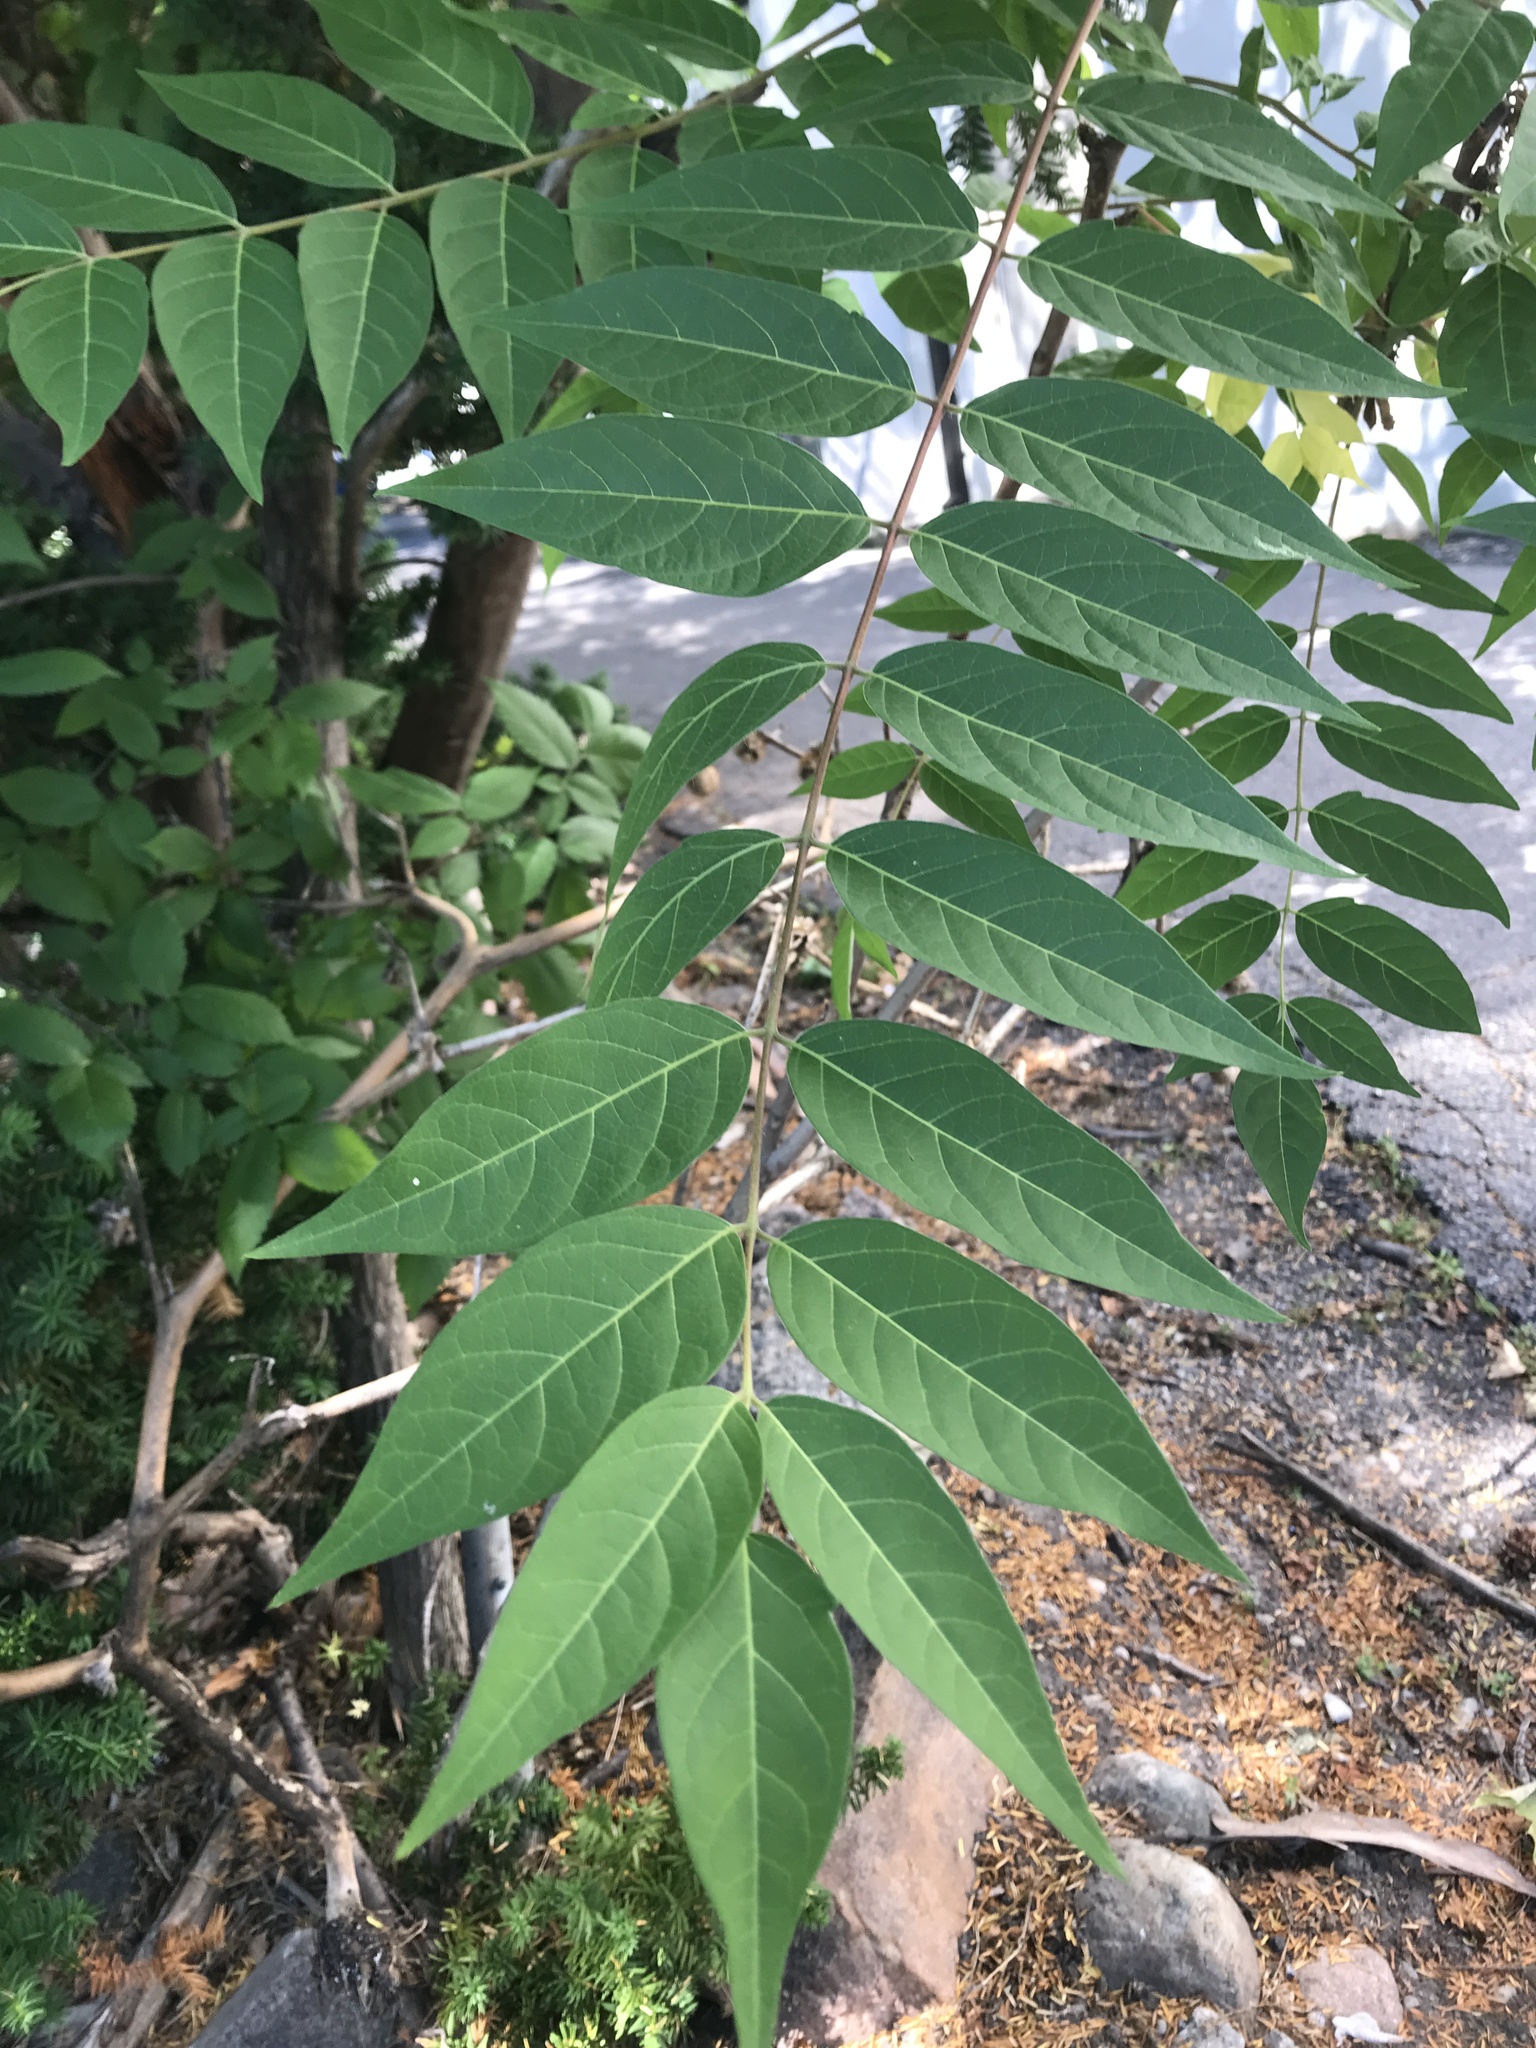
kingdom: Plantae
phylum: Tracheophyta
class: Magnoliopsida
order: Sapindales
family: Simaroubaceae
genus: Ailanthus
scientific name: Ailanthus altissima
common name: Tree-of-heaven
